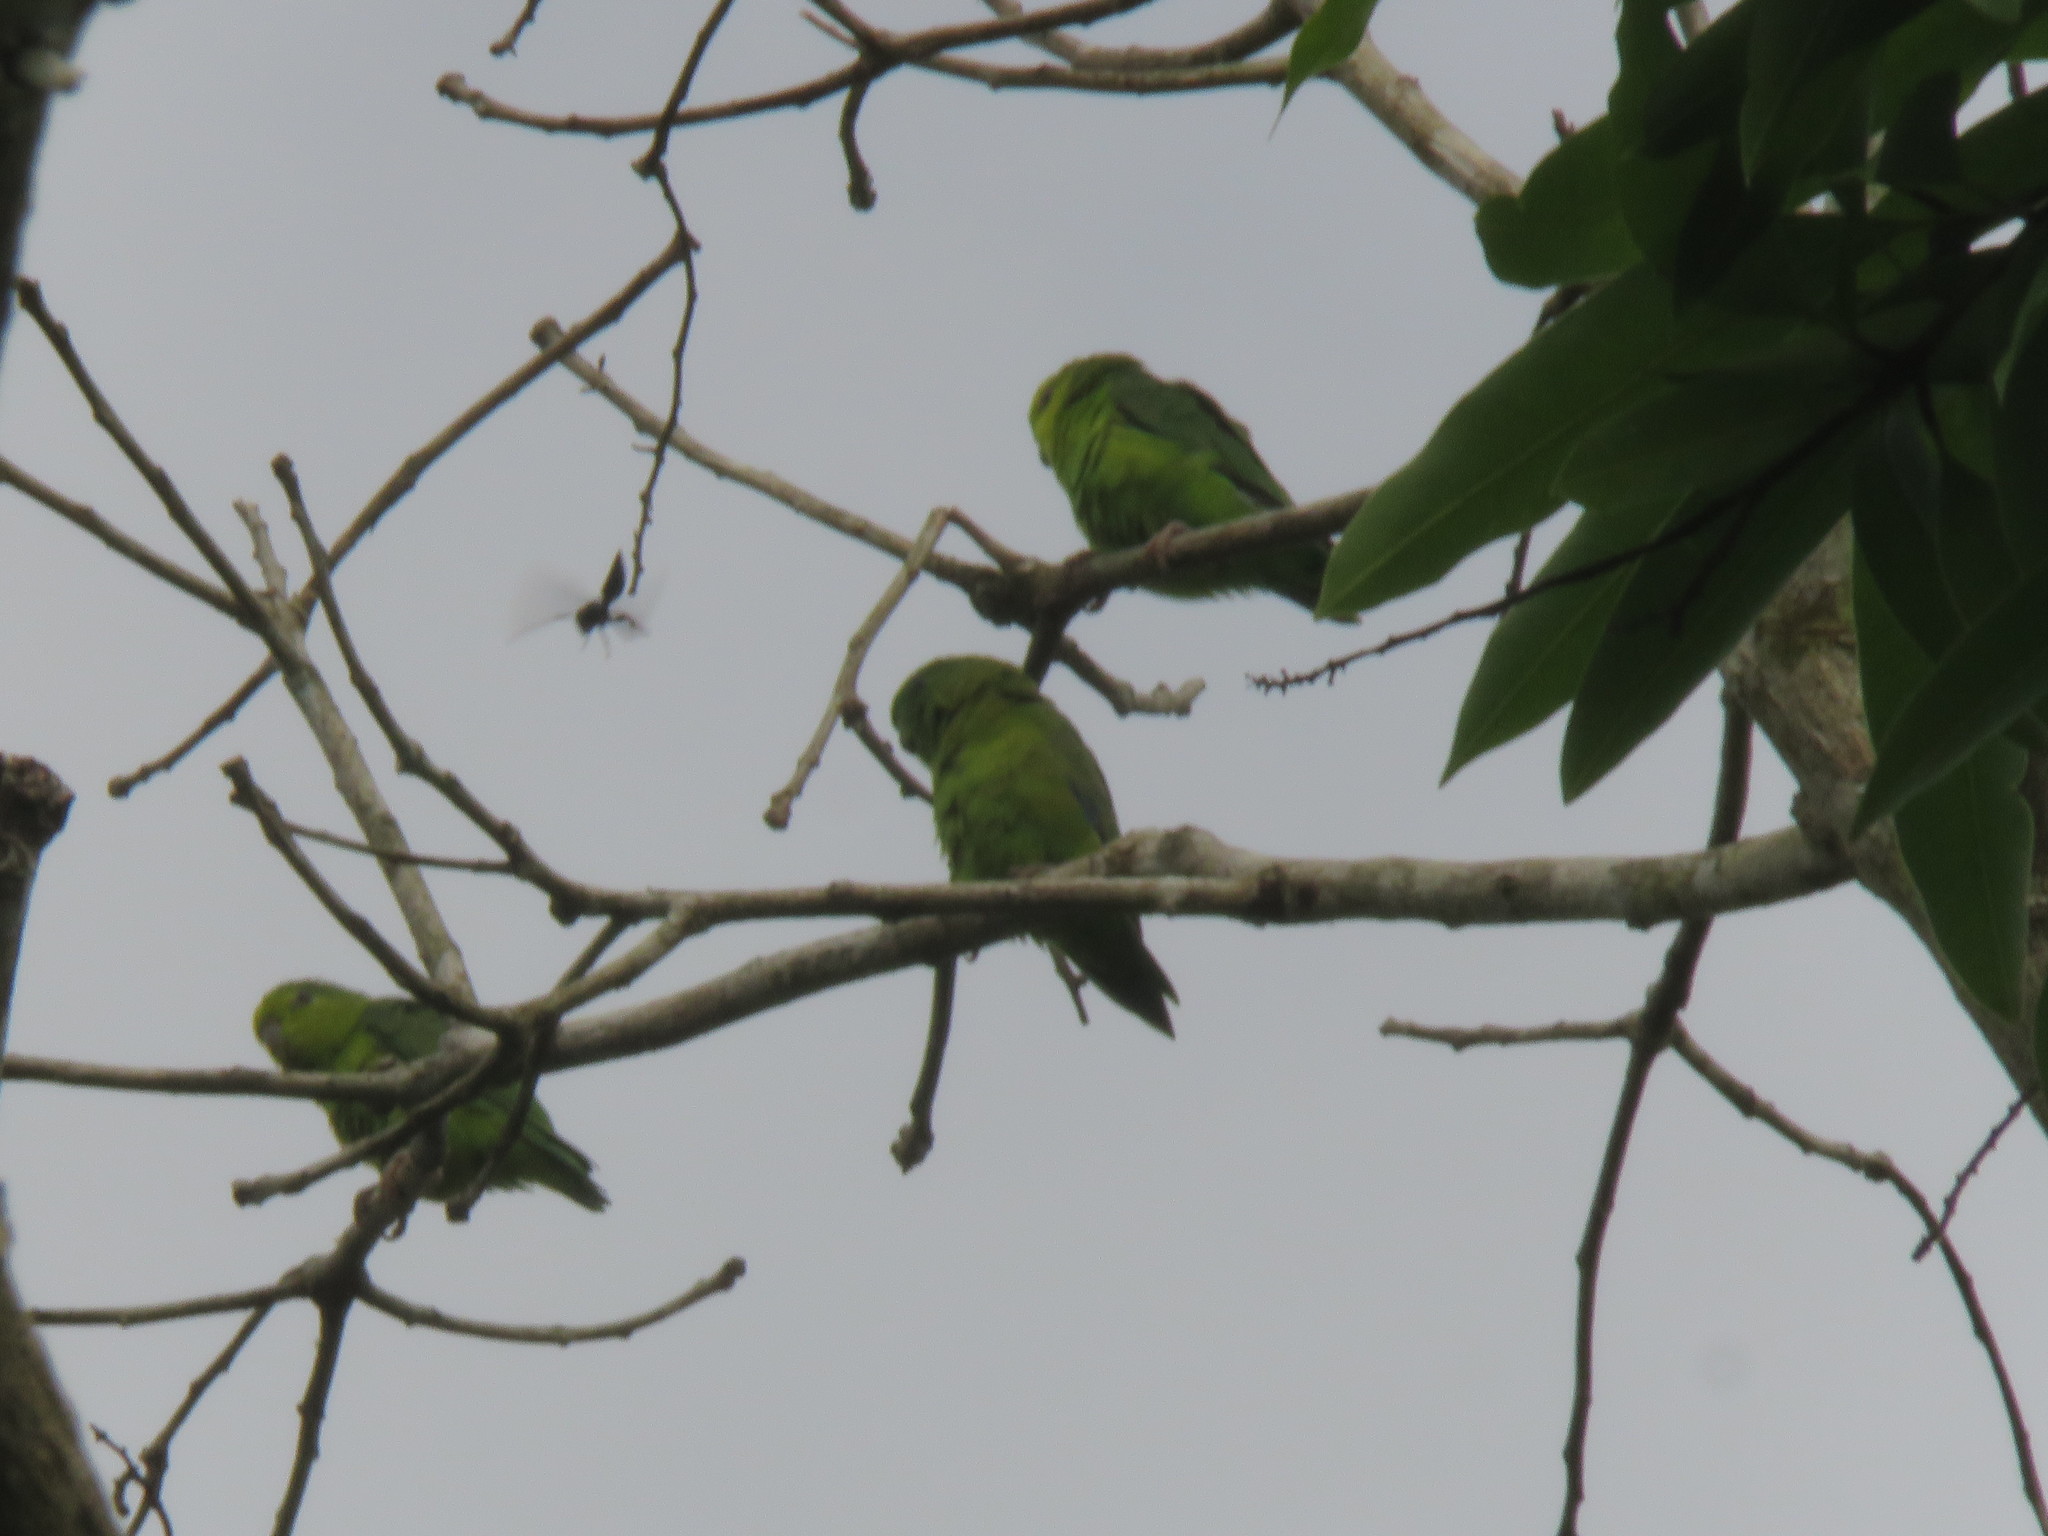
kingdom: Animalia
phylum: Chordata
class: Aves
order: Psittaciformes
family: Psittacidae
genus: Forpus
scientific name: Forpus modestus
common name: Dusky-billed parrotlet
